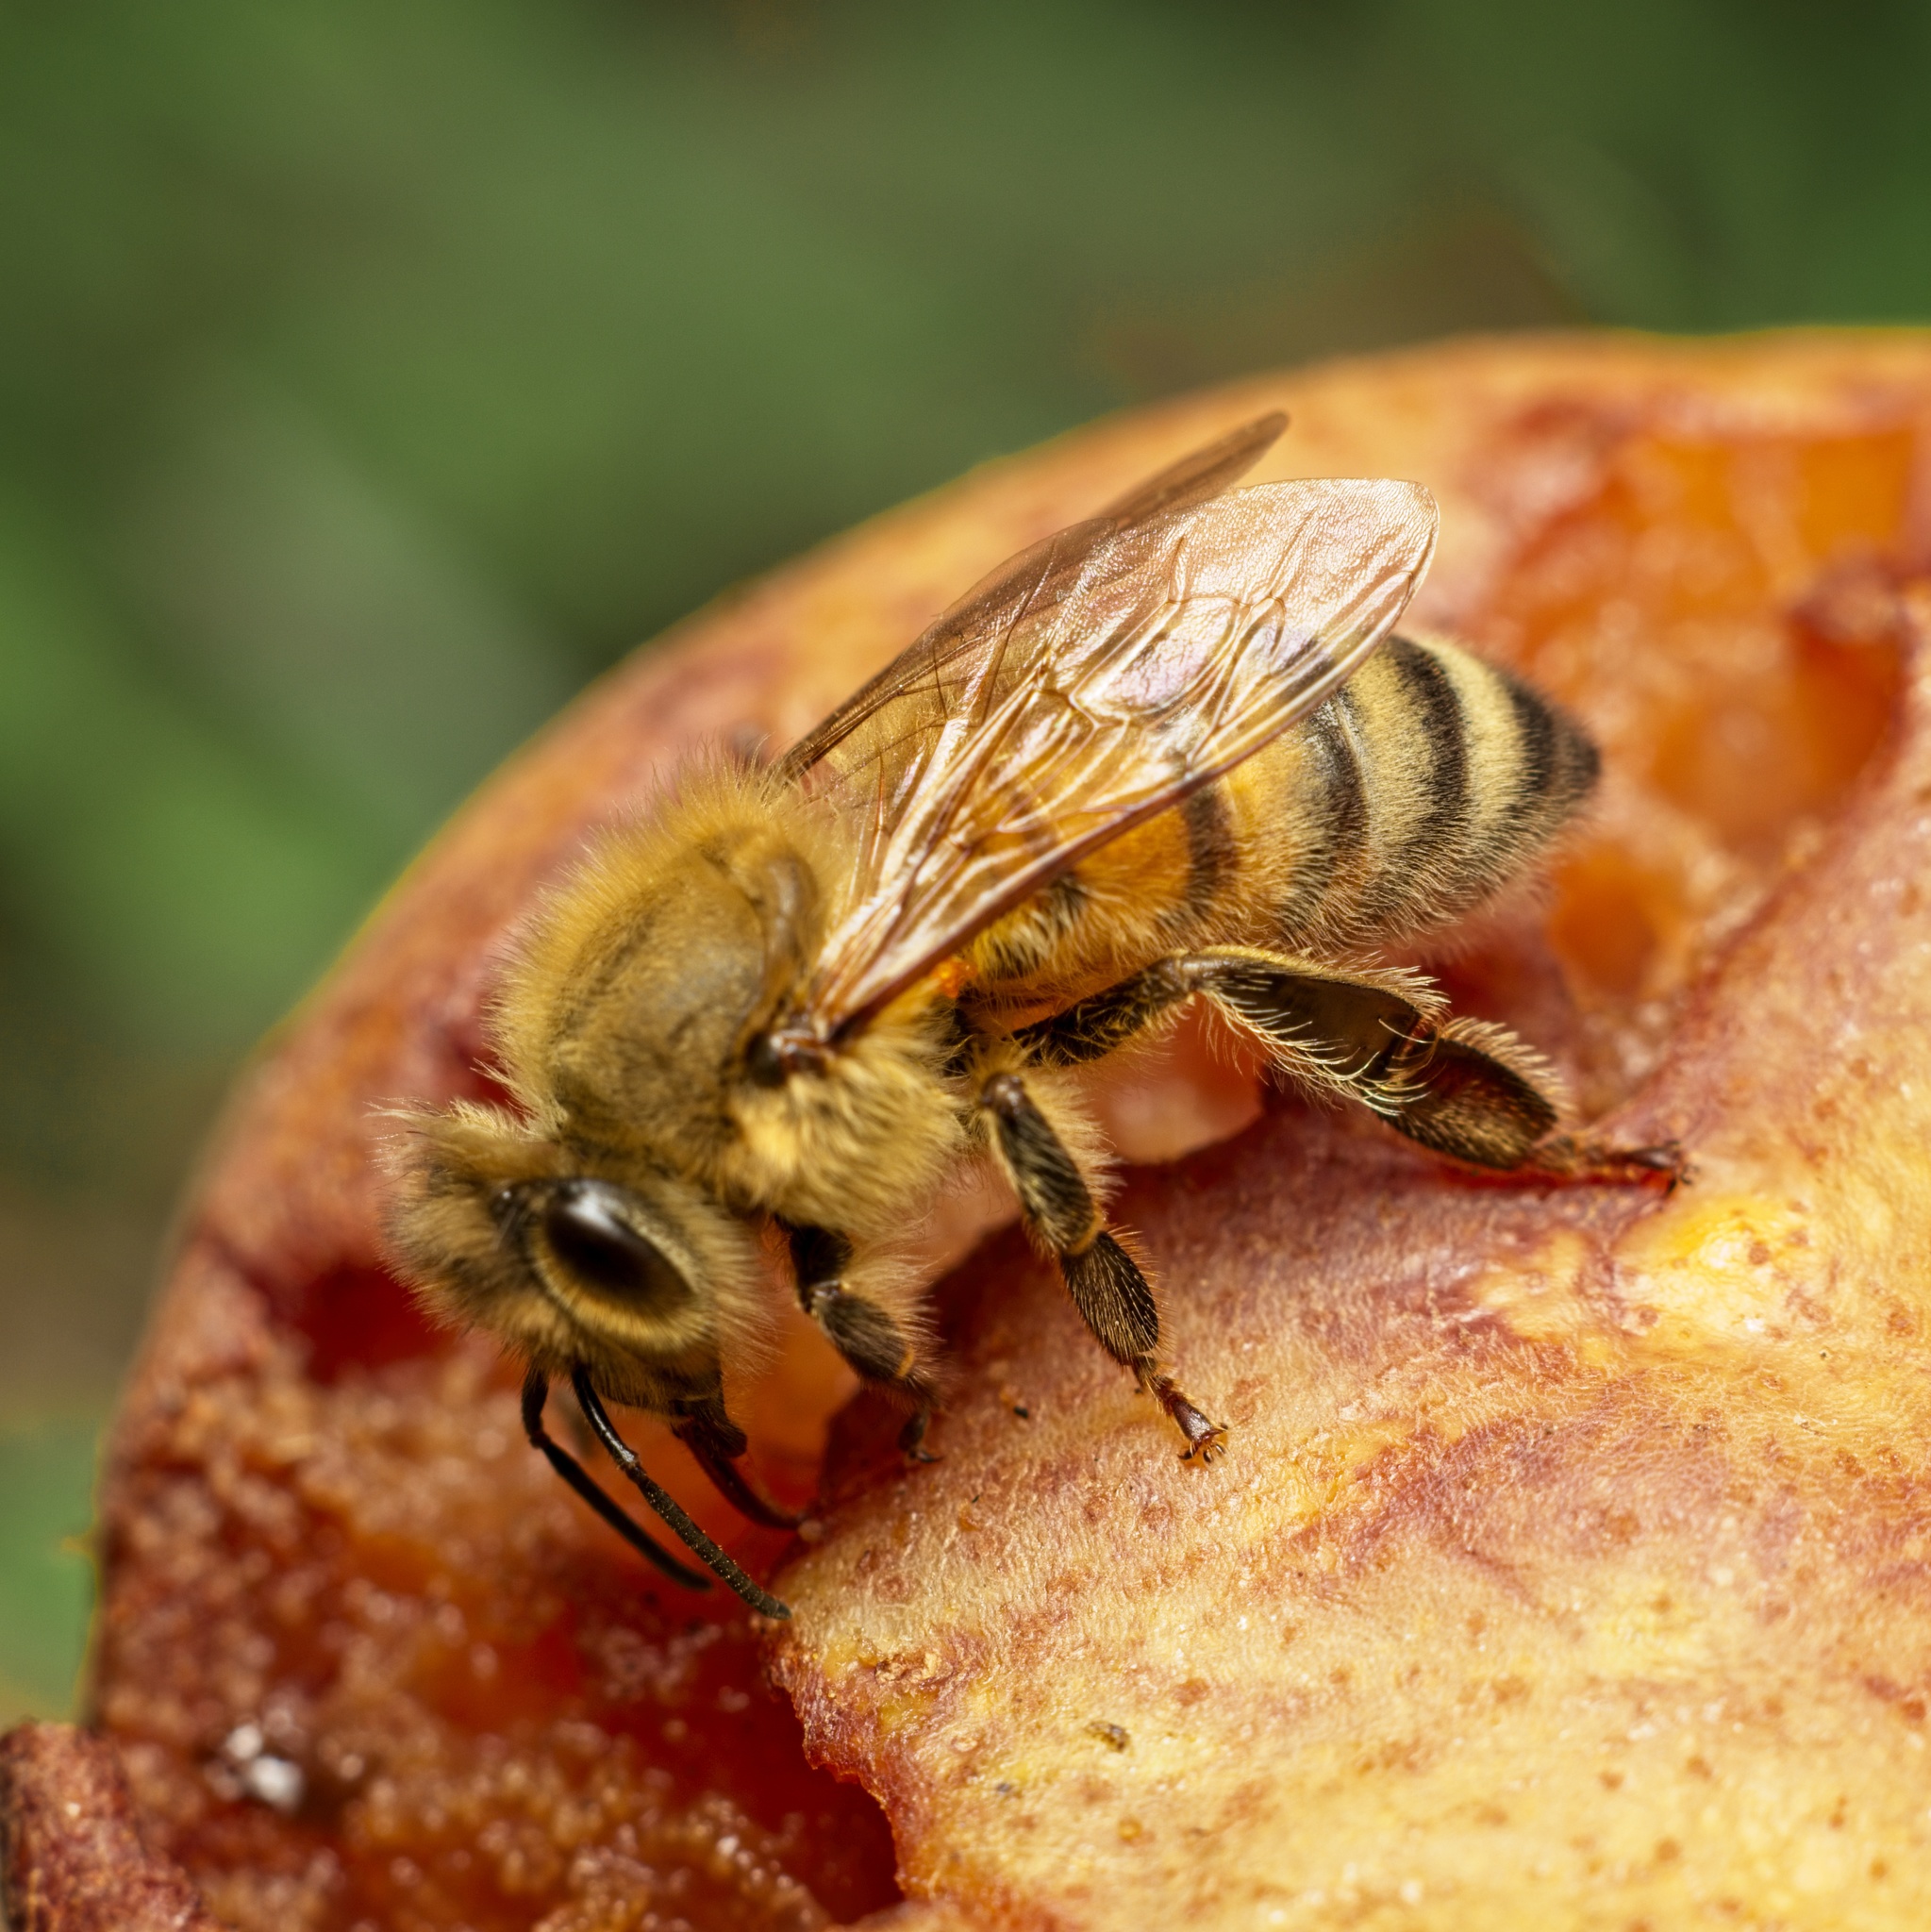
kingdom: Animalia
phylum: Arthropoda
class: Insecta
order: Hymenoptera
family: Apidae
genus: Apis
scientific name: Apis mellifera
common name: Honey bee
